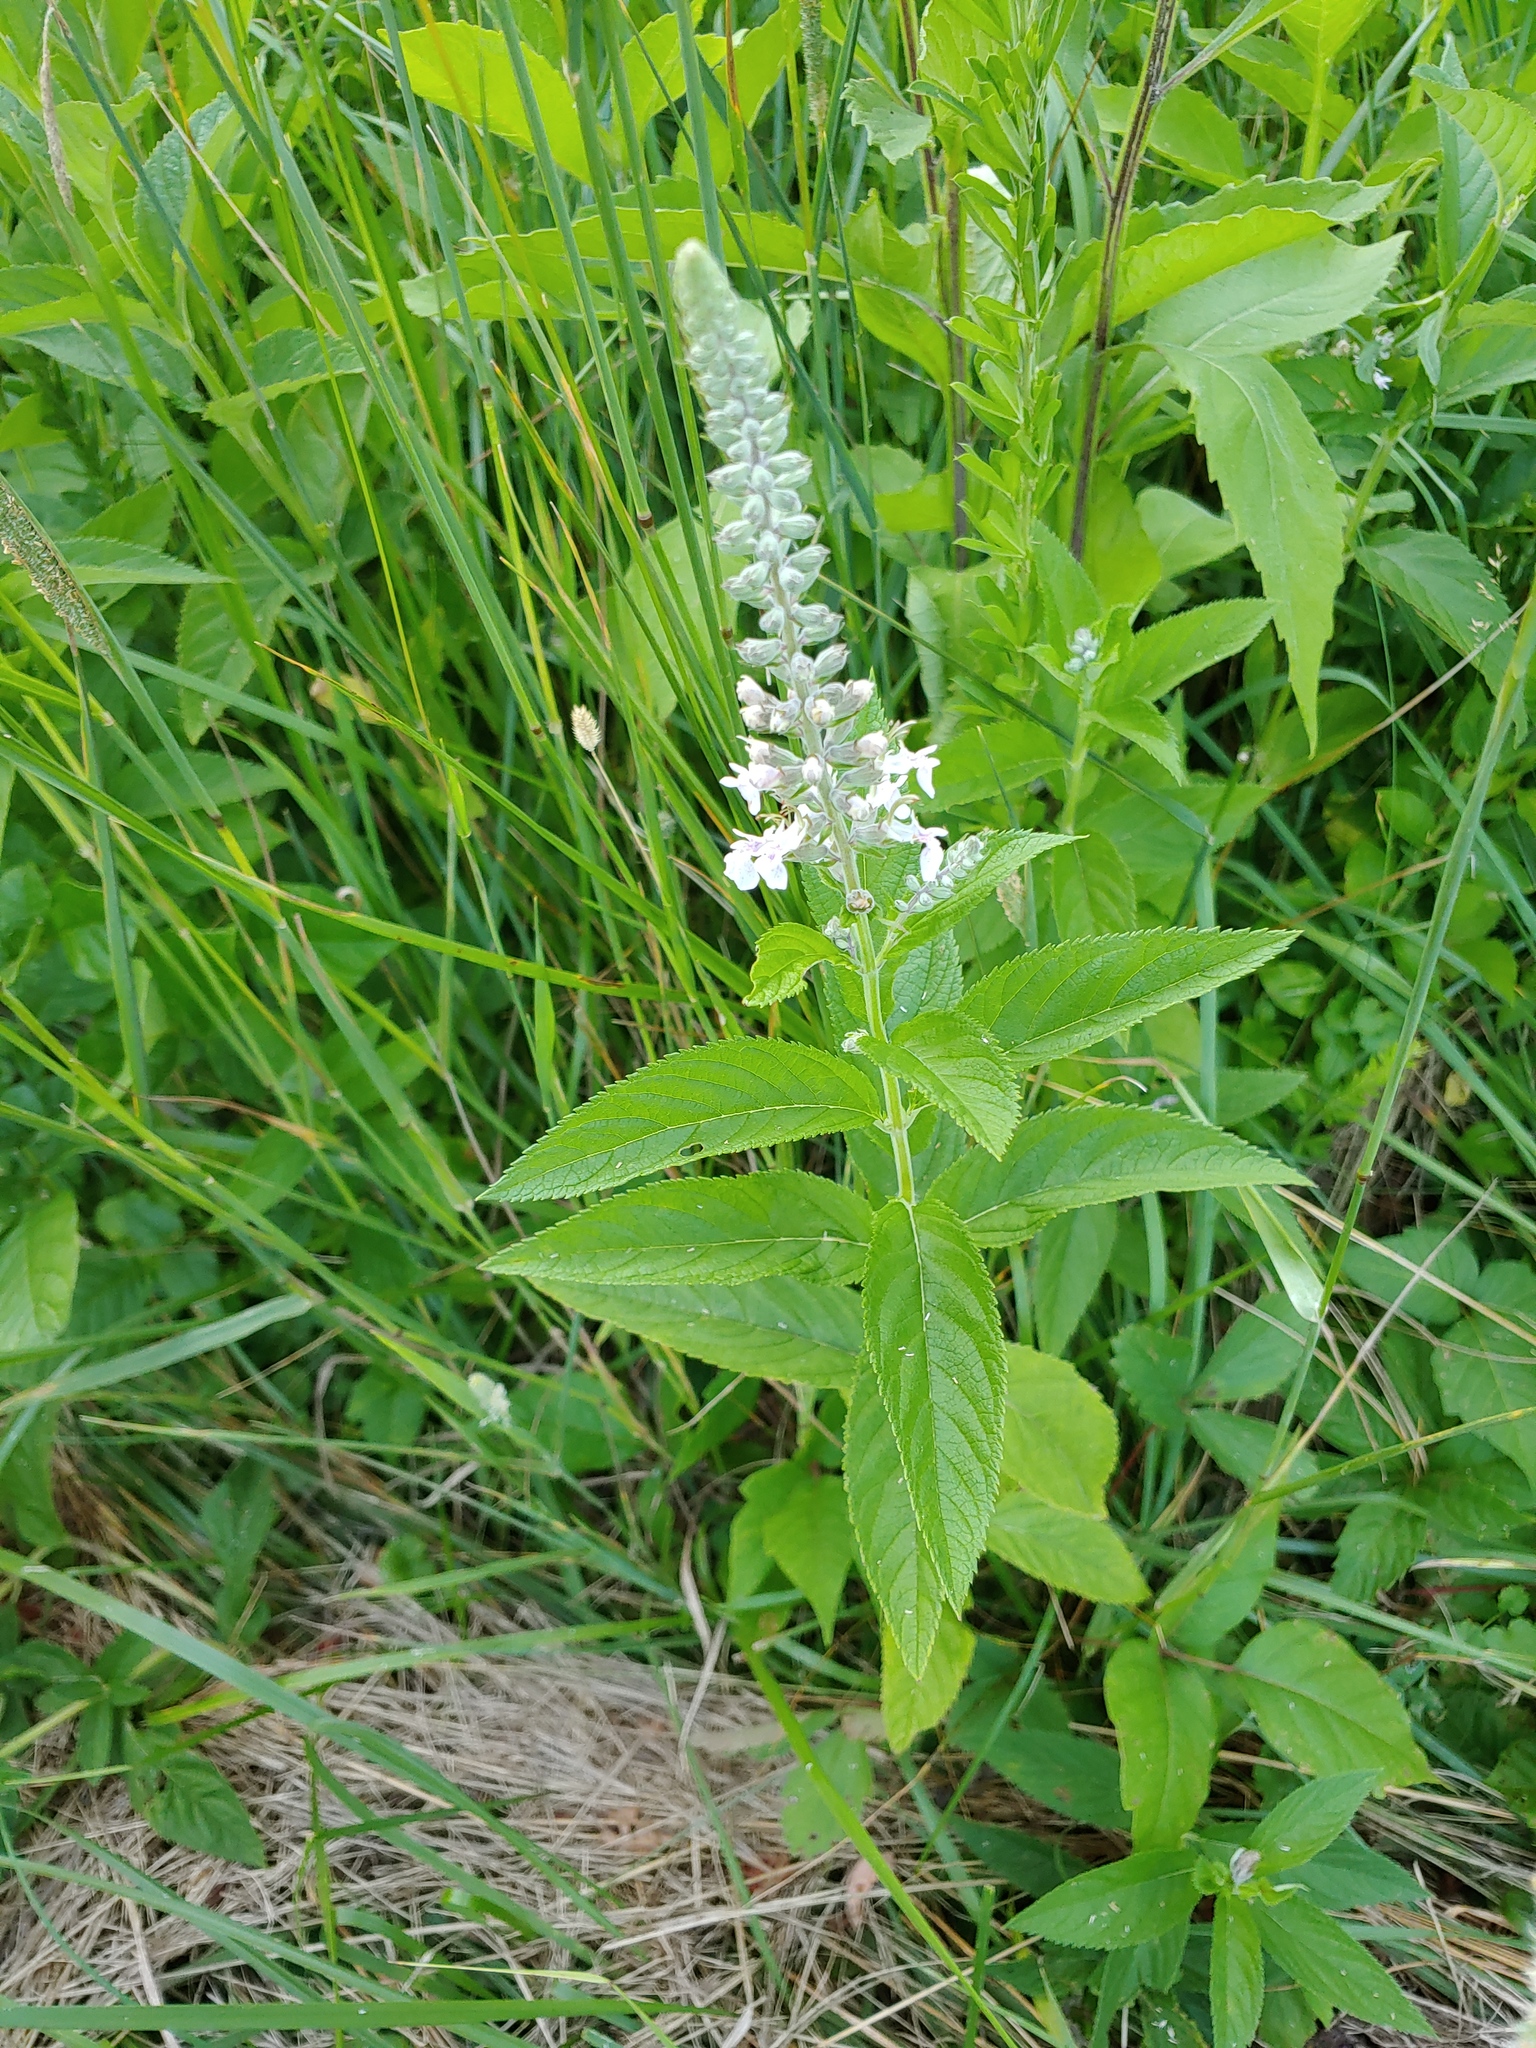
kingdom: Plantae
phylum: Tracheophyta
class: Magnoliopsida
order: Lamiales
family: Lamiaceae
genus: Teucrium
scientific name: Teucrium canadense
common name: American germander
